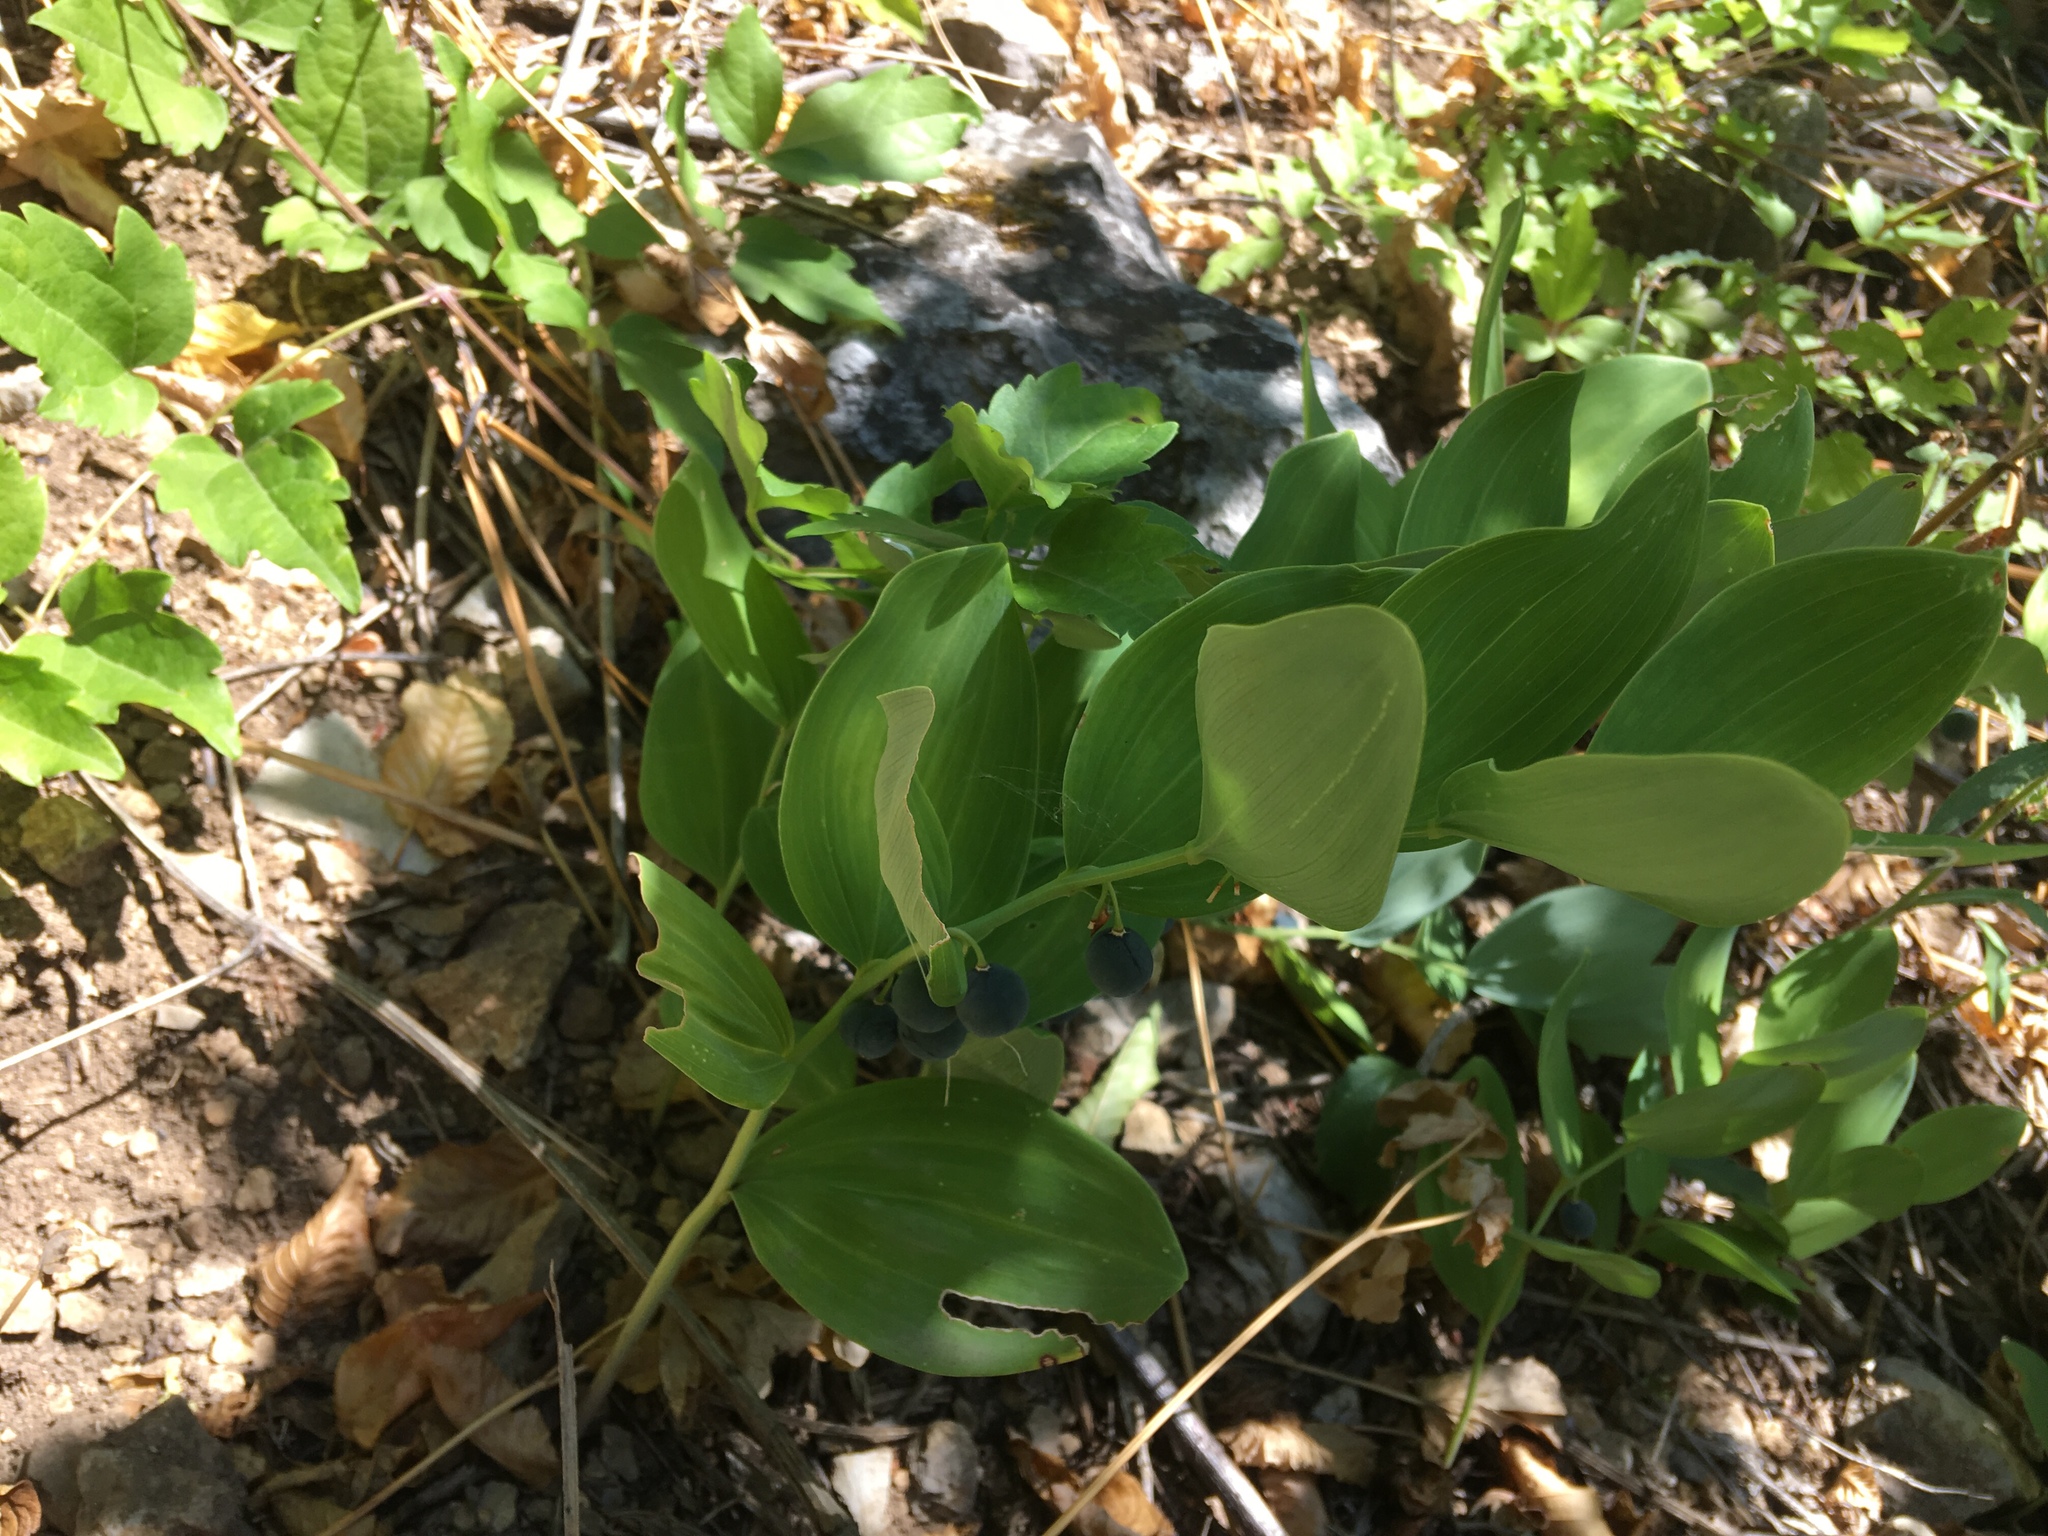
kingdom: Plantae
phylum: Tracheophyta
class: Liliopsida
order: Asparagales
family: Asparagaceae
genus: Polygonatum
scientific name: Polygonatum latifolium
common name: Broadleaf solomon's seal
